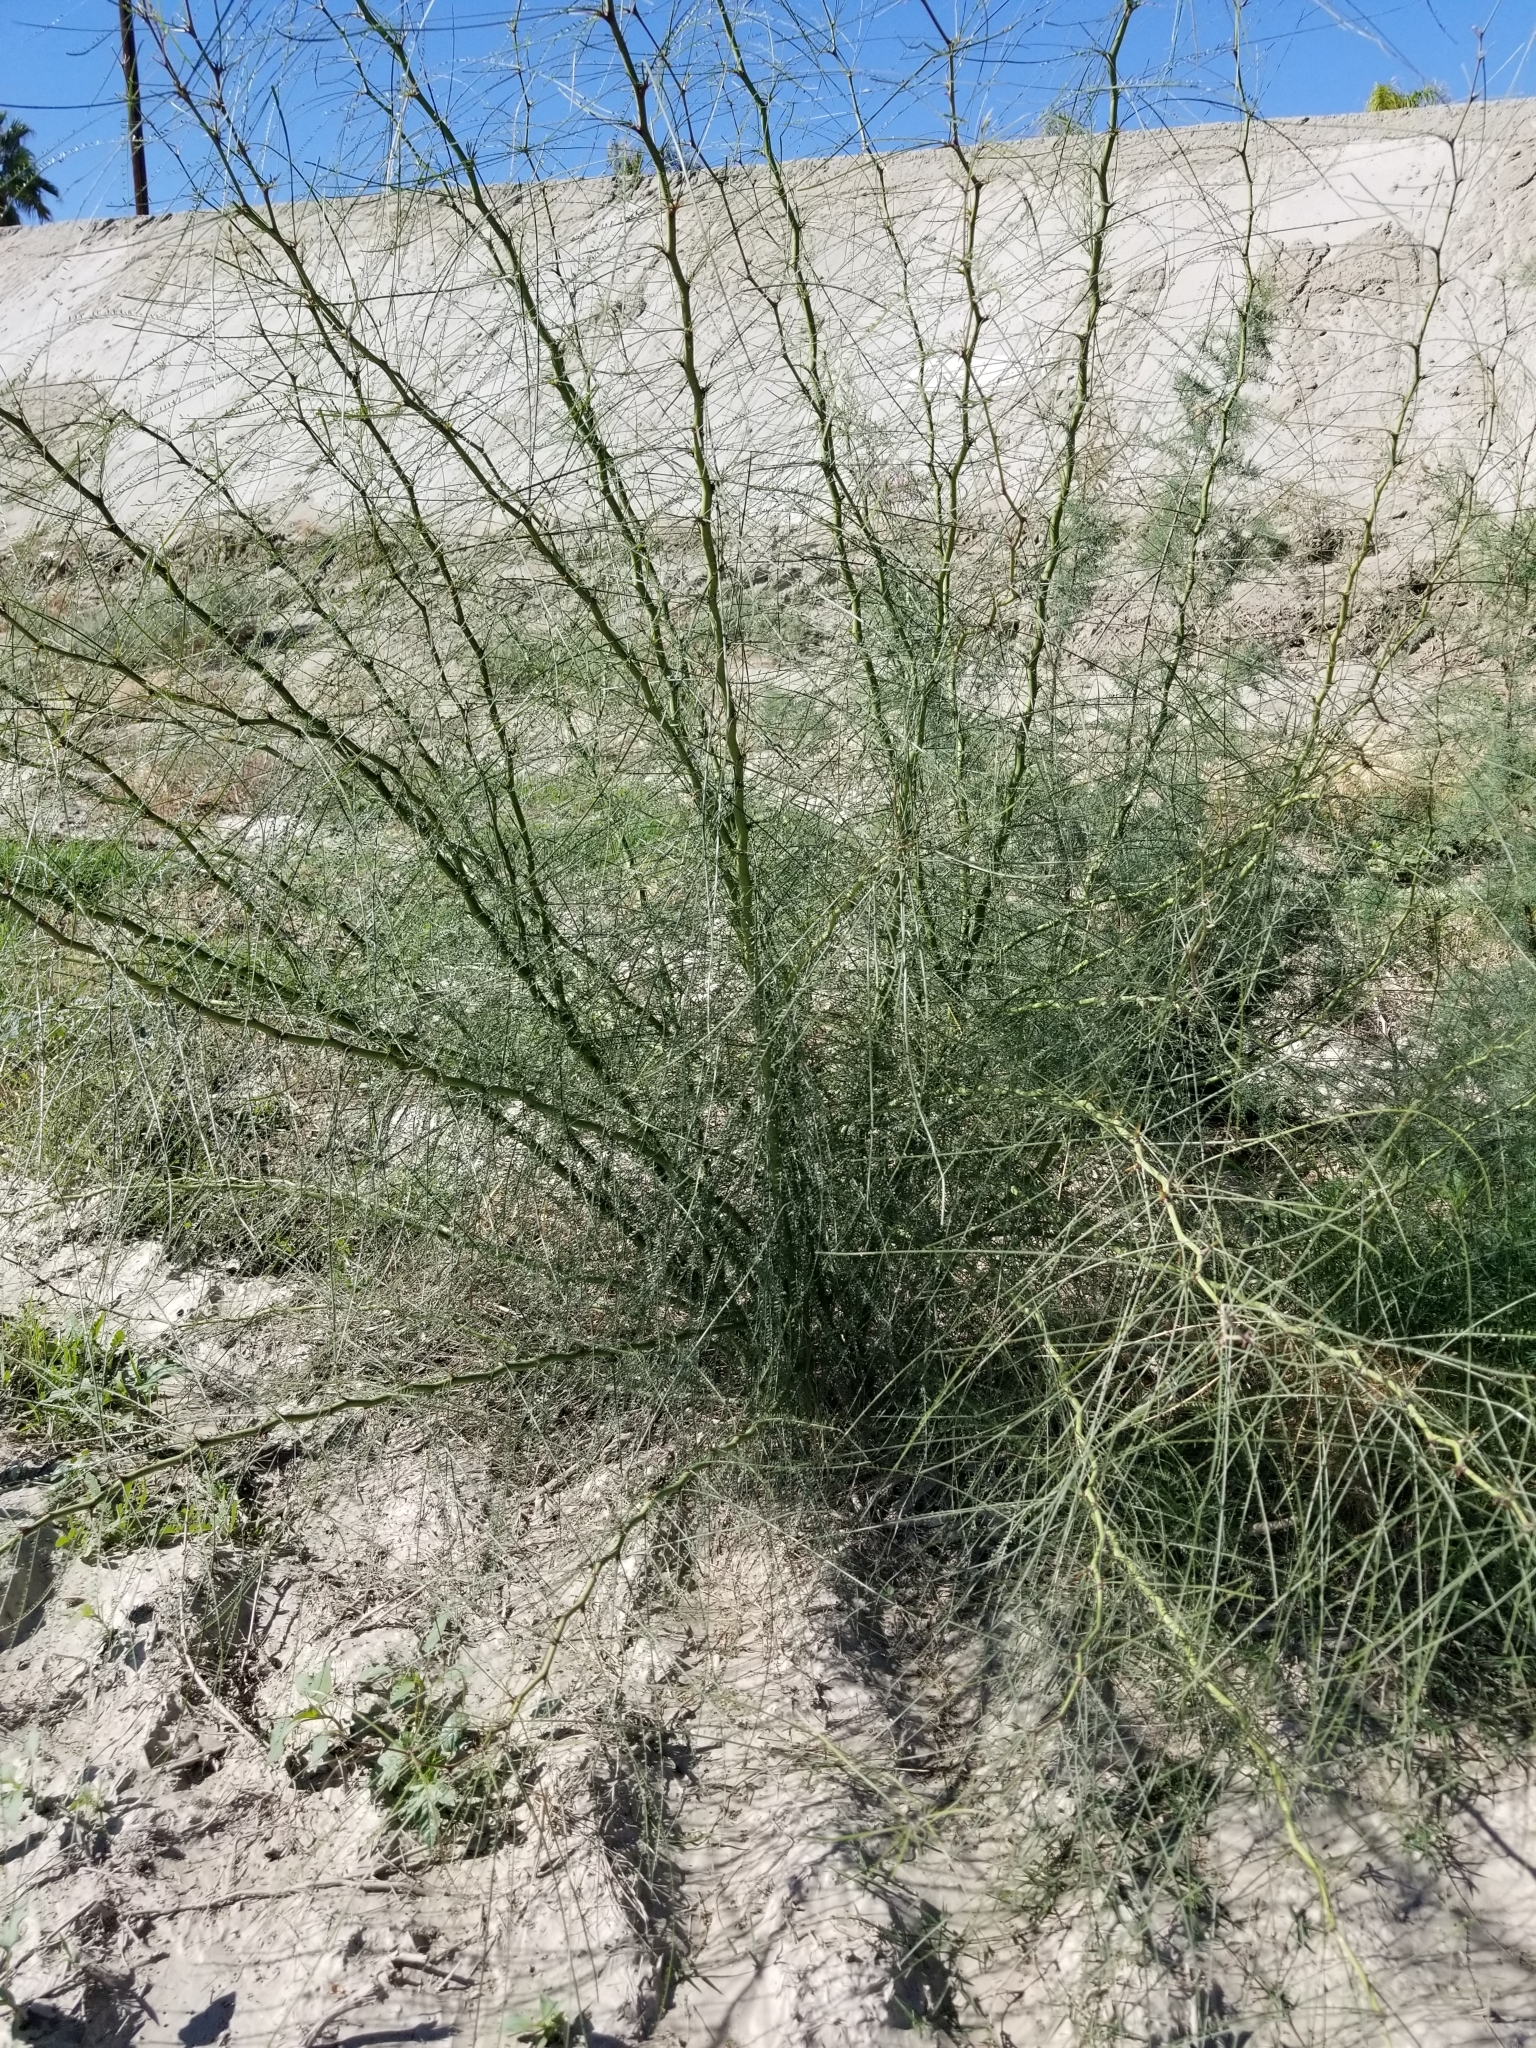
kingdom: Plantae
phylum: Tracheophyta
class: Magnoliopsida
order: Fabales
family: Fabaceae
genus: Parkinsonia
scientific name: Parkinsonia aculeata
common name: Jerusalem thorn
